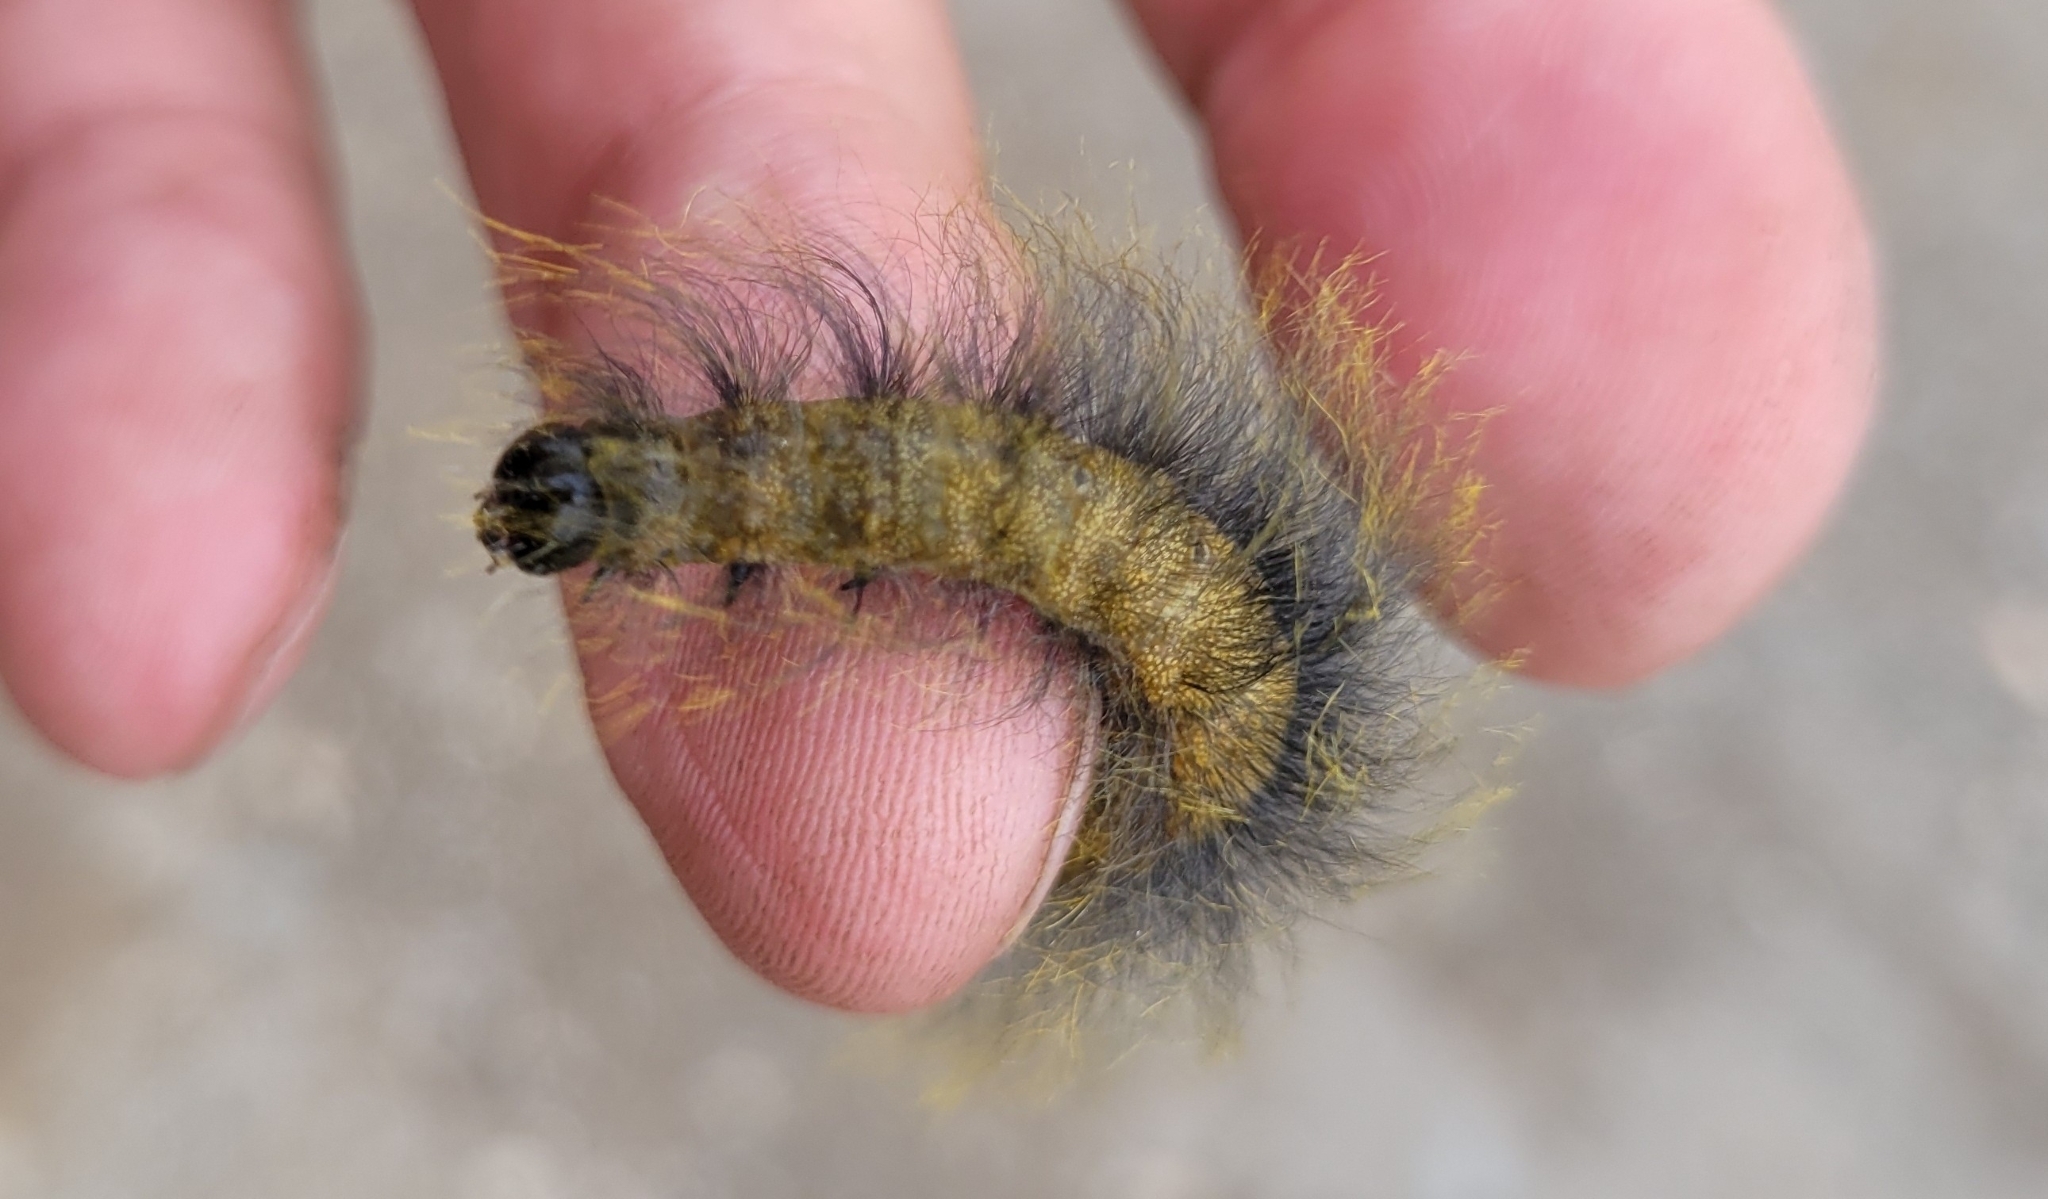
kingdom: Animalia
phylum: Arthropoda
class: Insecta
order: Lepidoptera
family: Noctuidae
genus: Acronicta
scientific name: Acronicta leporina
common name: Miller
